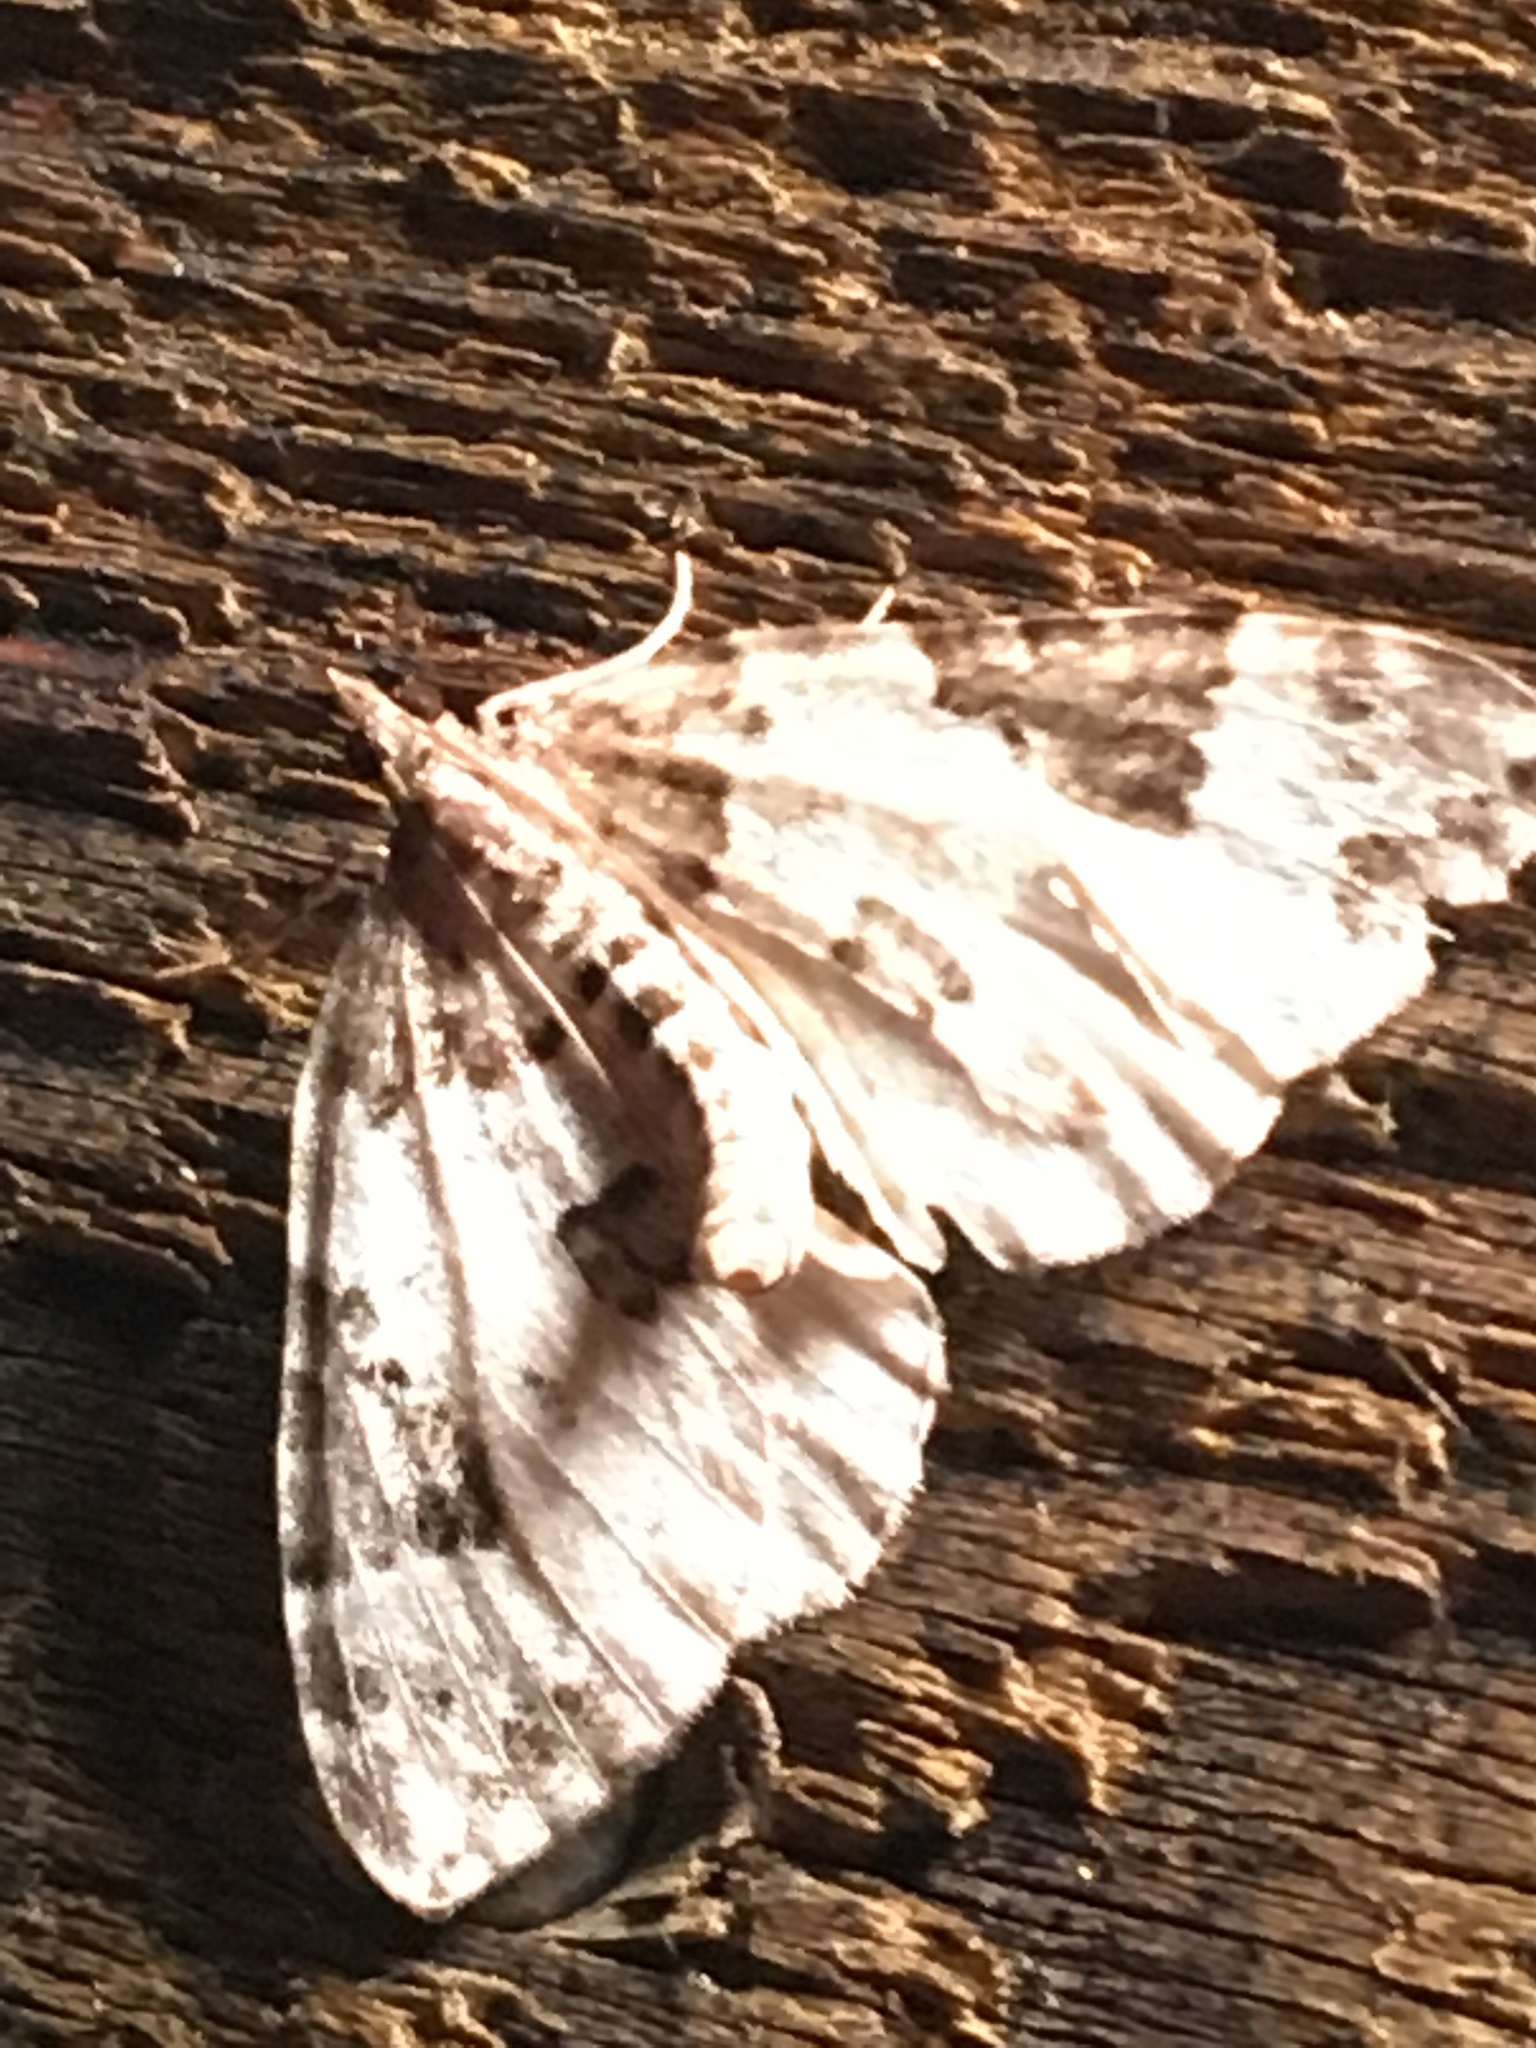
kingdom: Animalia
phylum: Arthropoda
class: Insecta
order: Lepidoptera
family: Geometridae
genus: Eulithis
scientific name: Eulithis explanata
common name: White eulithis
